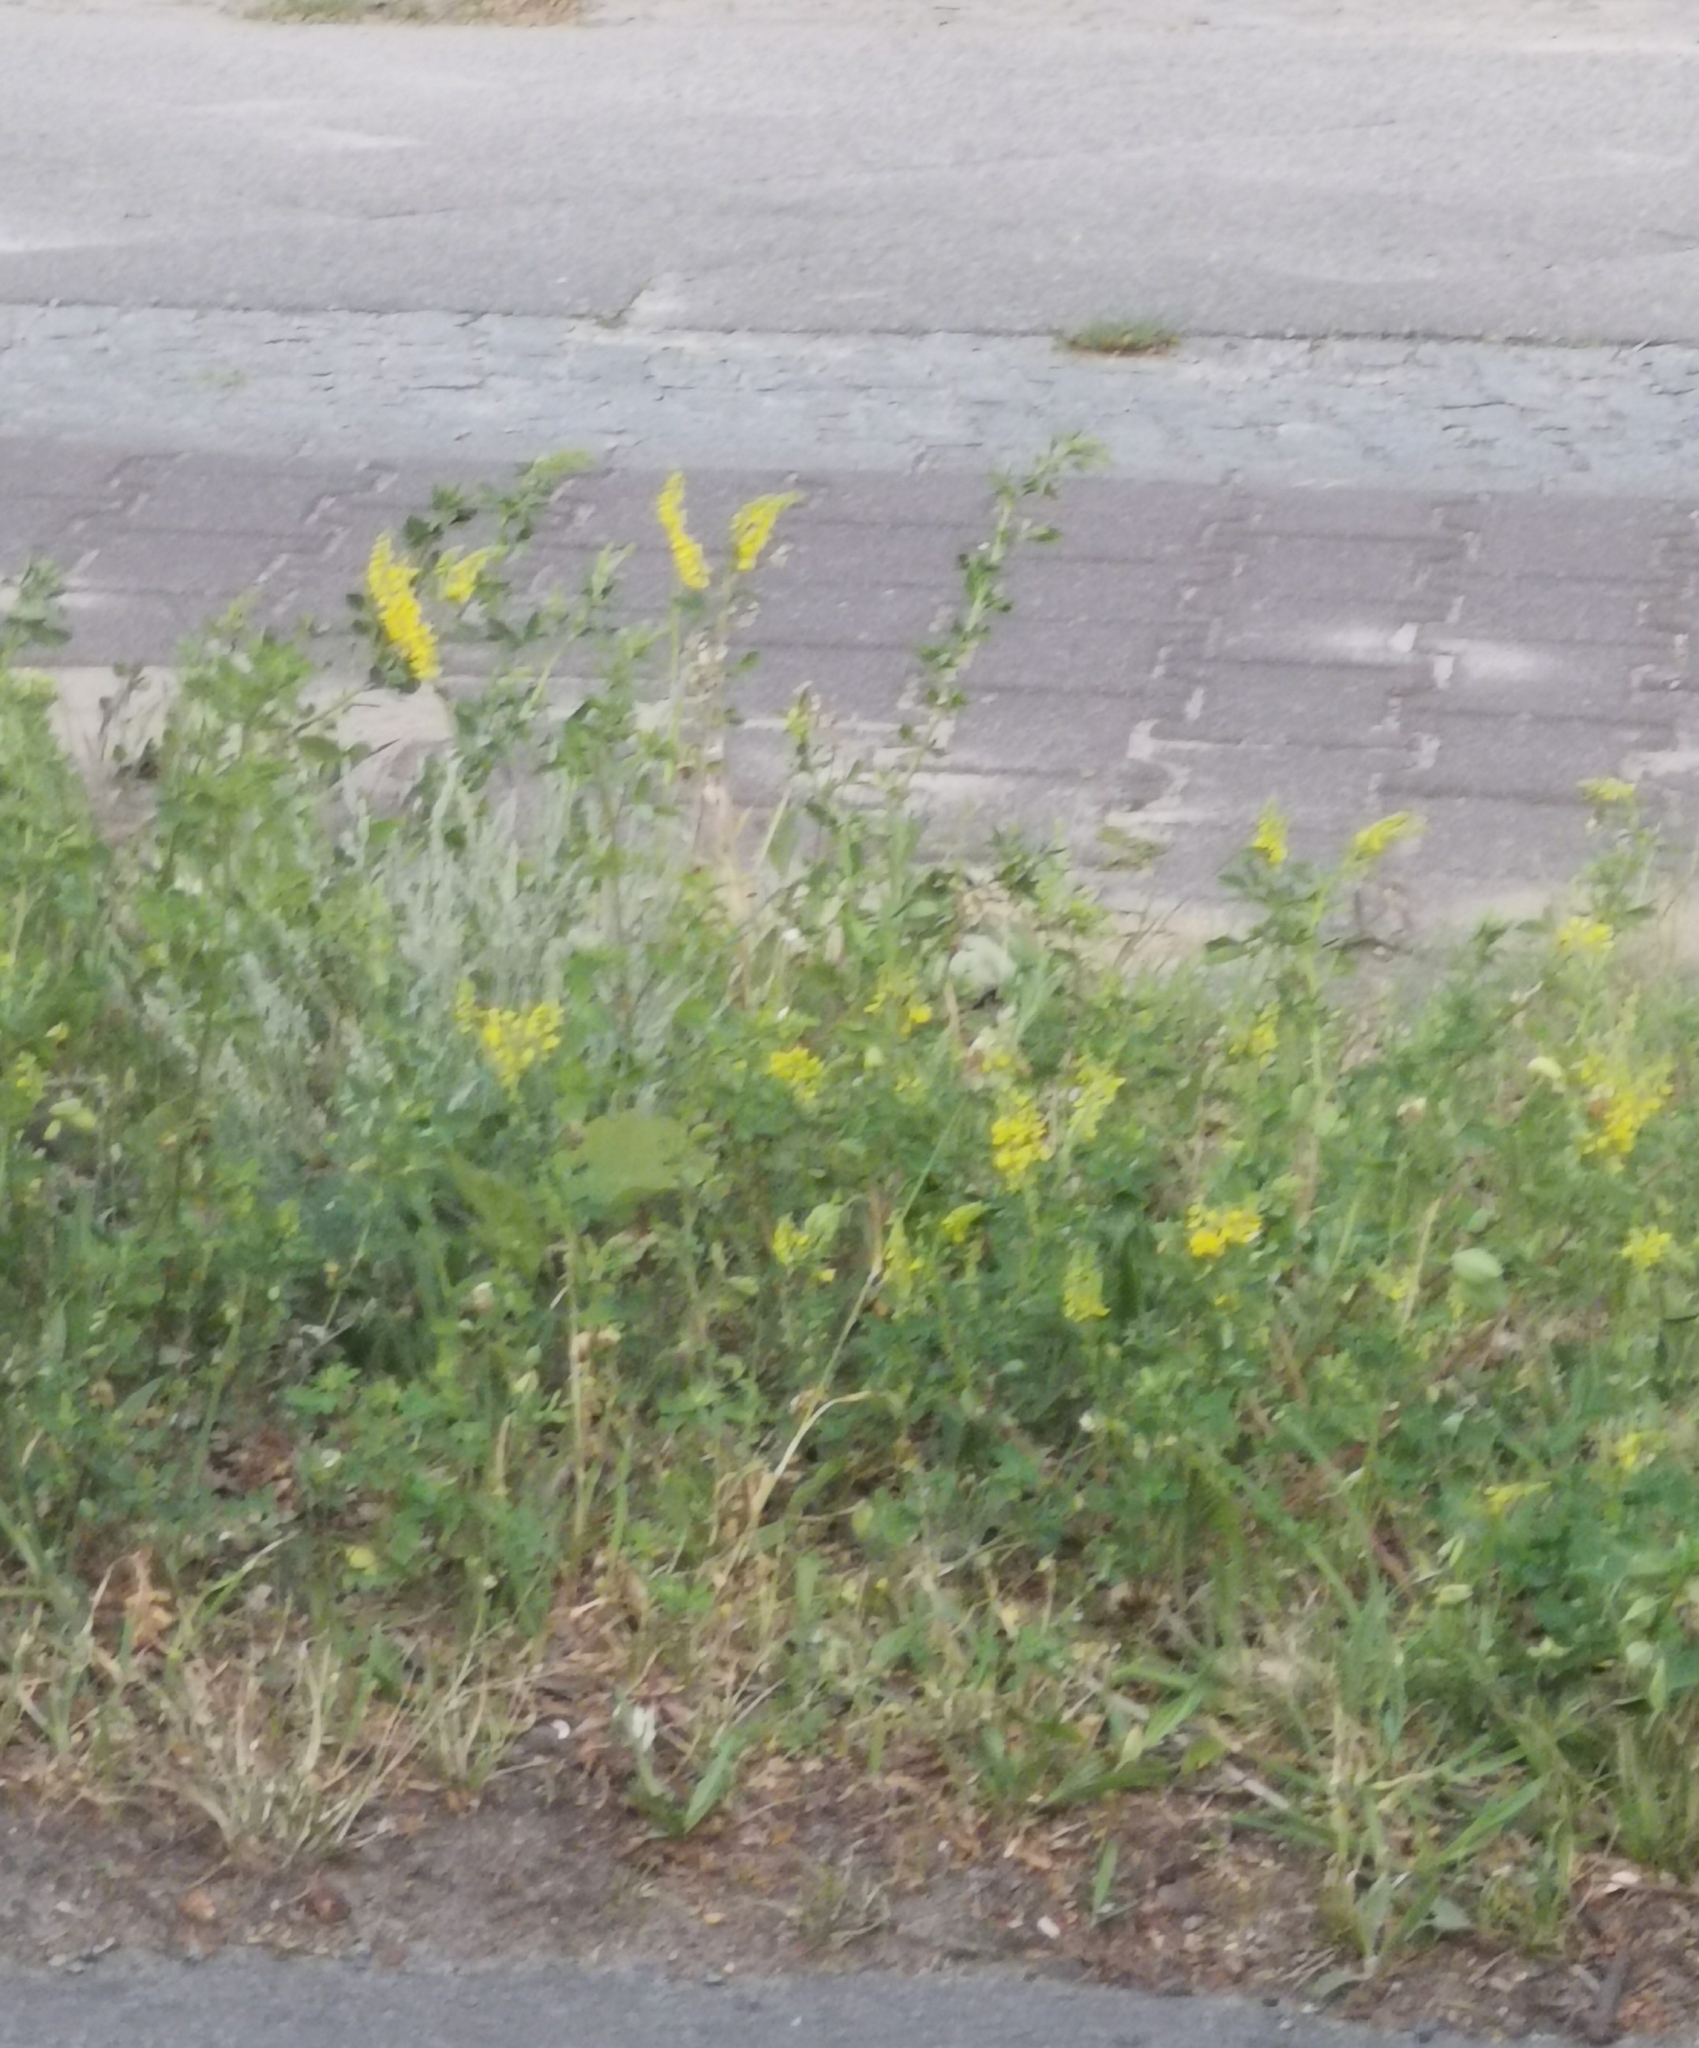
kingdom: Plantae
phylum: Tracheophyta
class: Magnoliopsida
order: Fabales
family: Fabaceae
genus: Melilotus
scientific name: Melilotus officinalis
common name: Sweetclover
